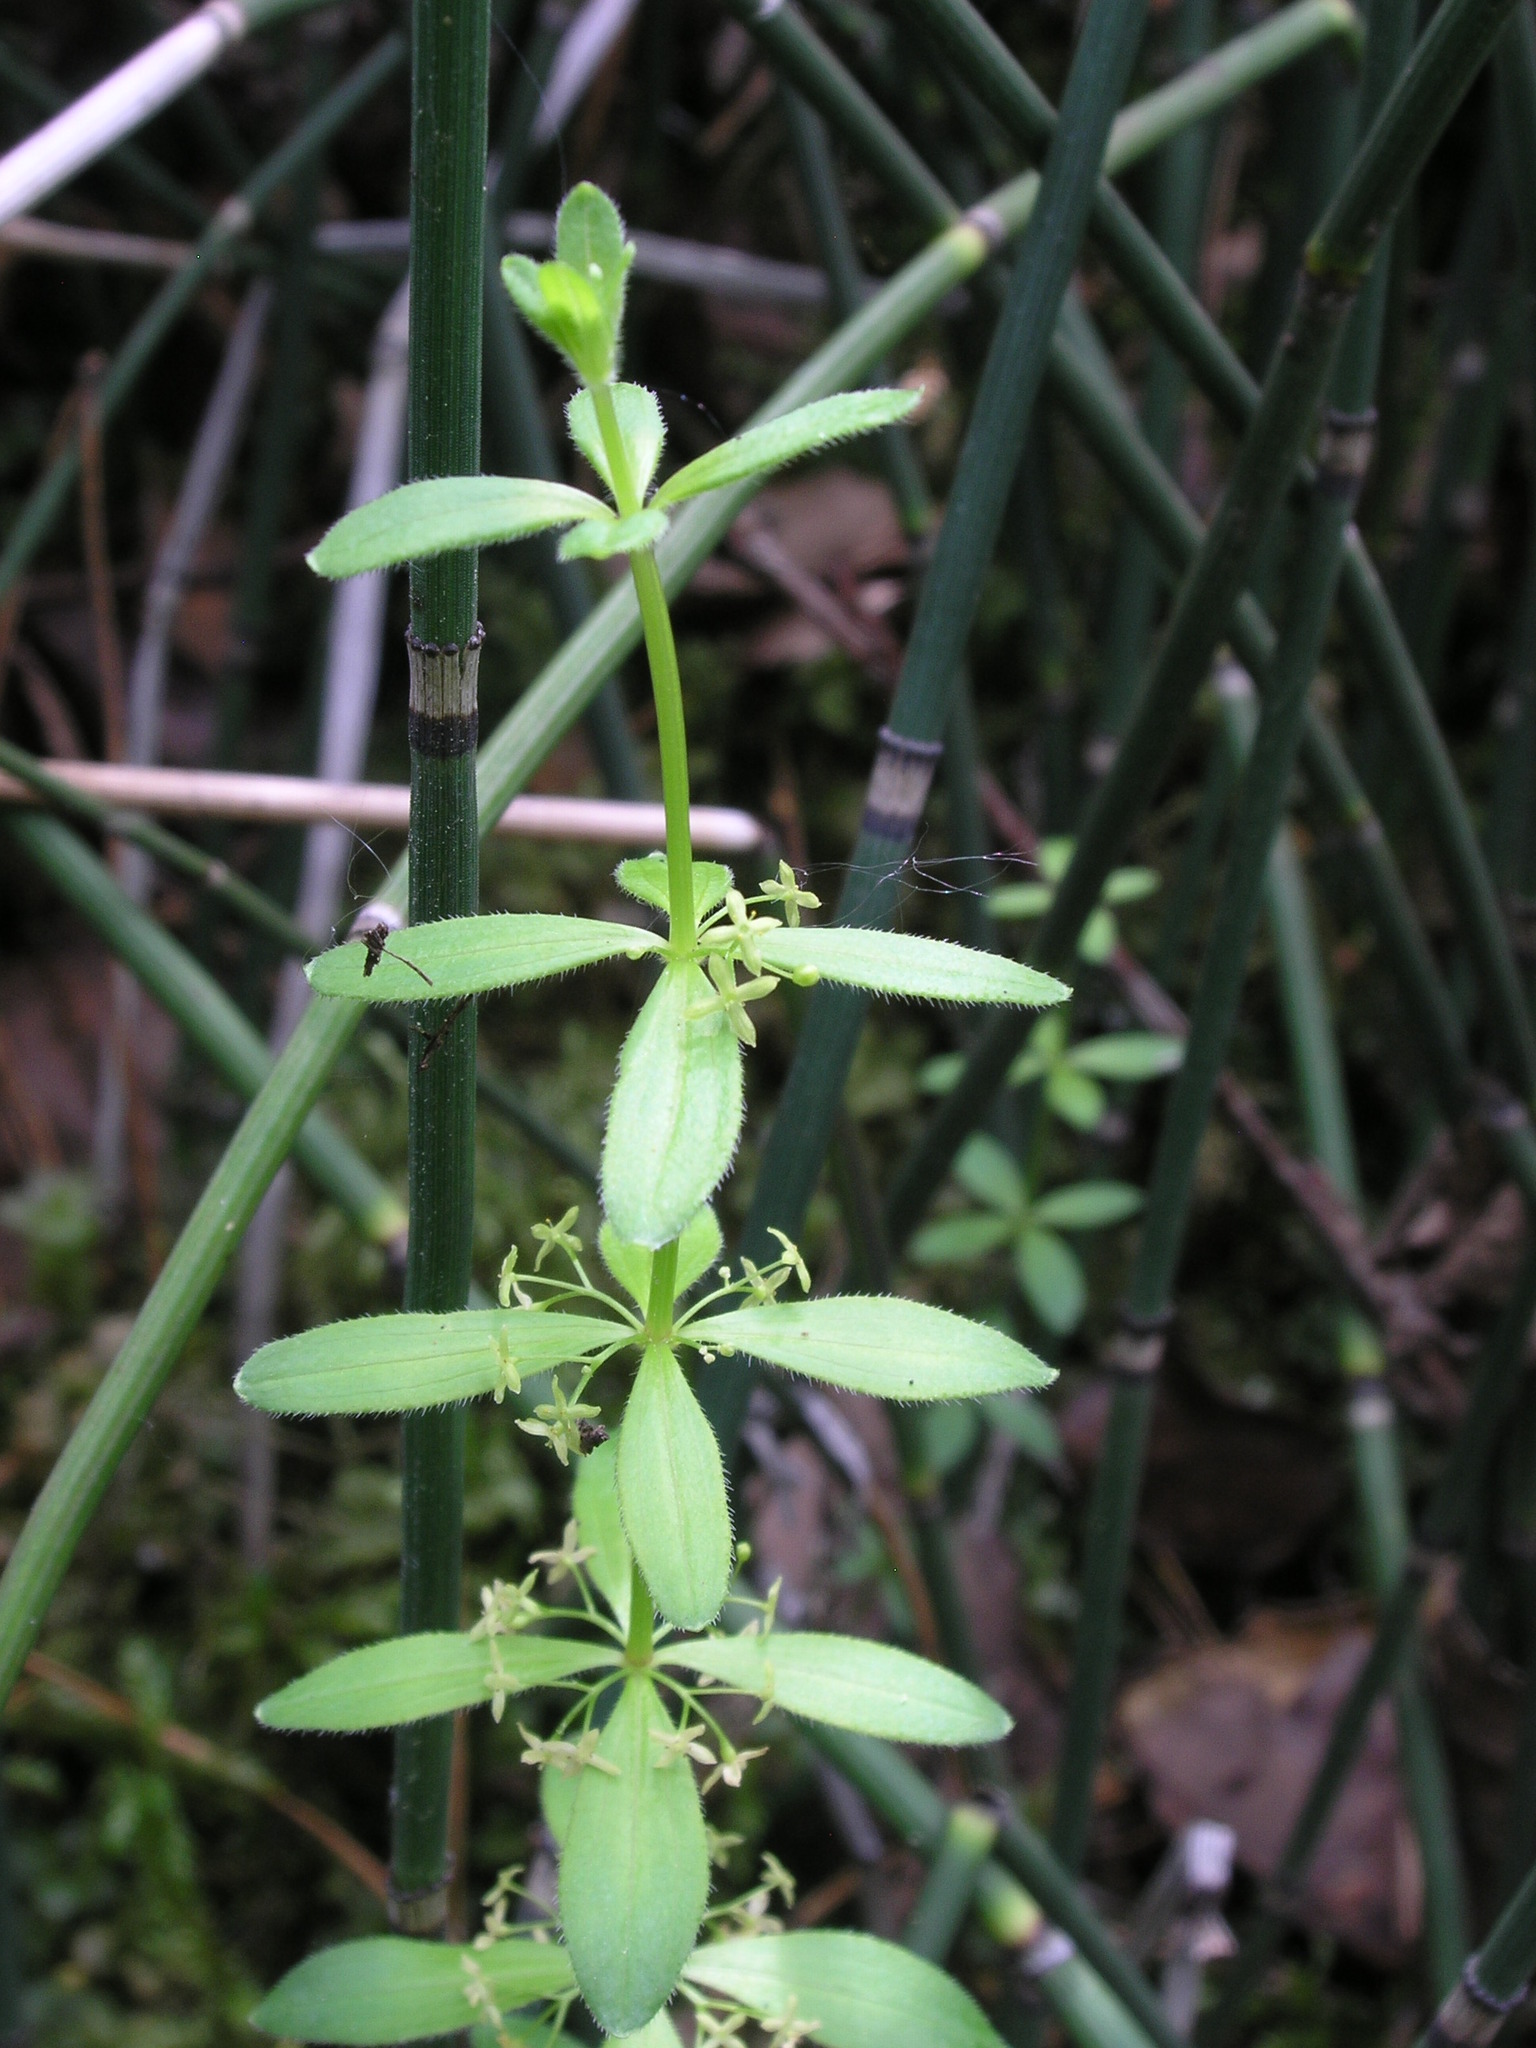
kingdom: Plantae
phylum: Tracheophyta
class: Magnoliopsida
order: Gentianales
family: Rubiaceae
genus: Cruciata
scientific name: Cruciata glabra
